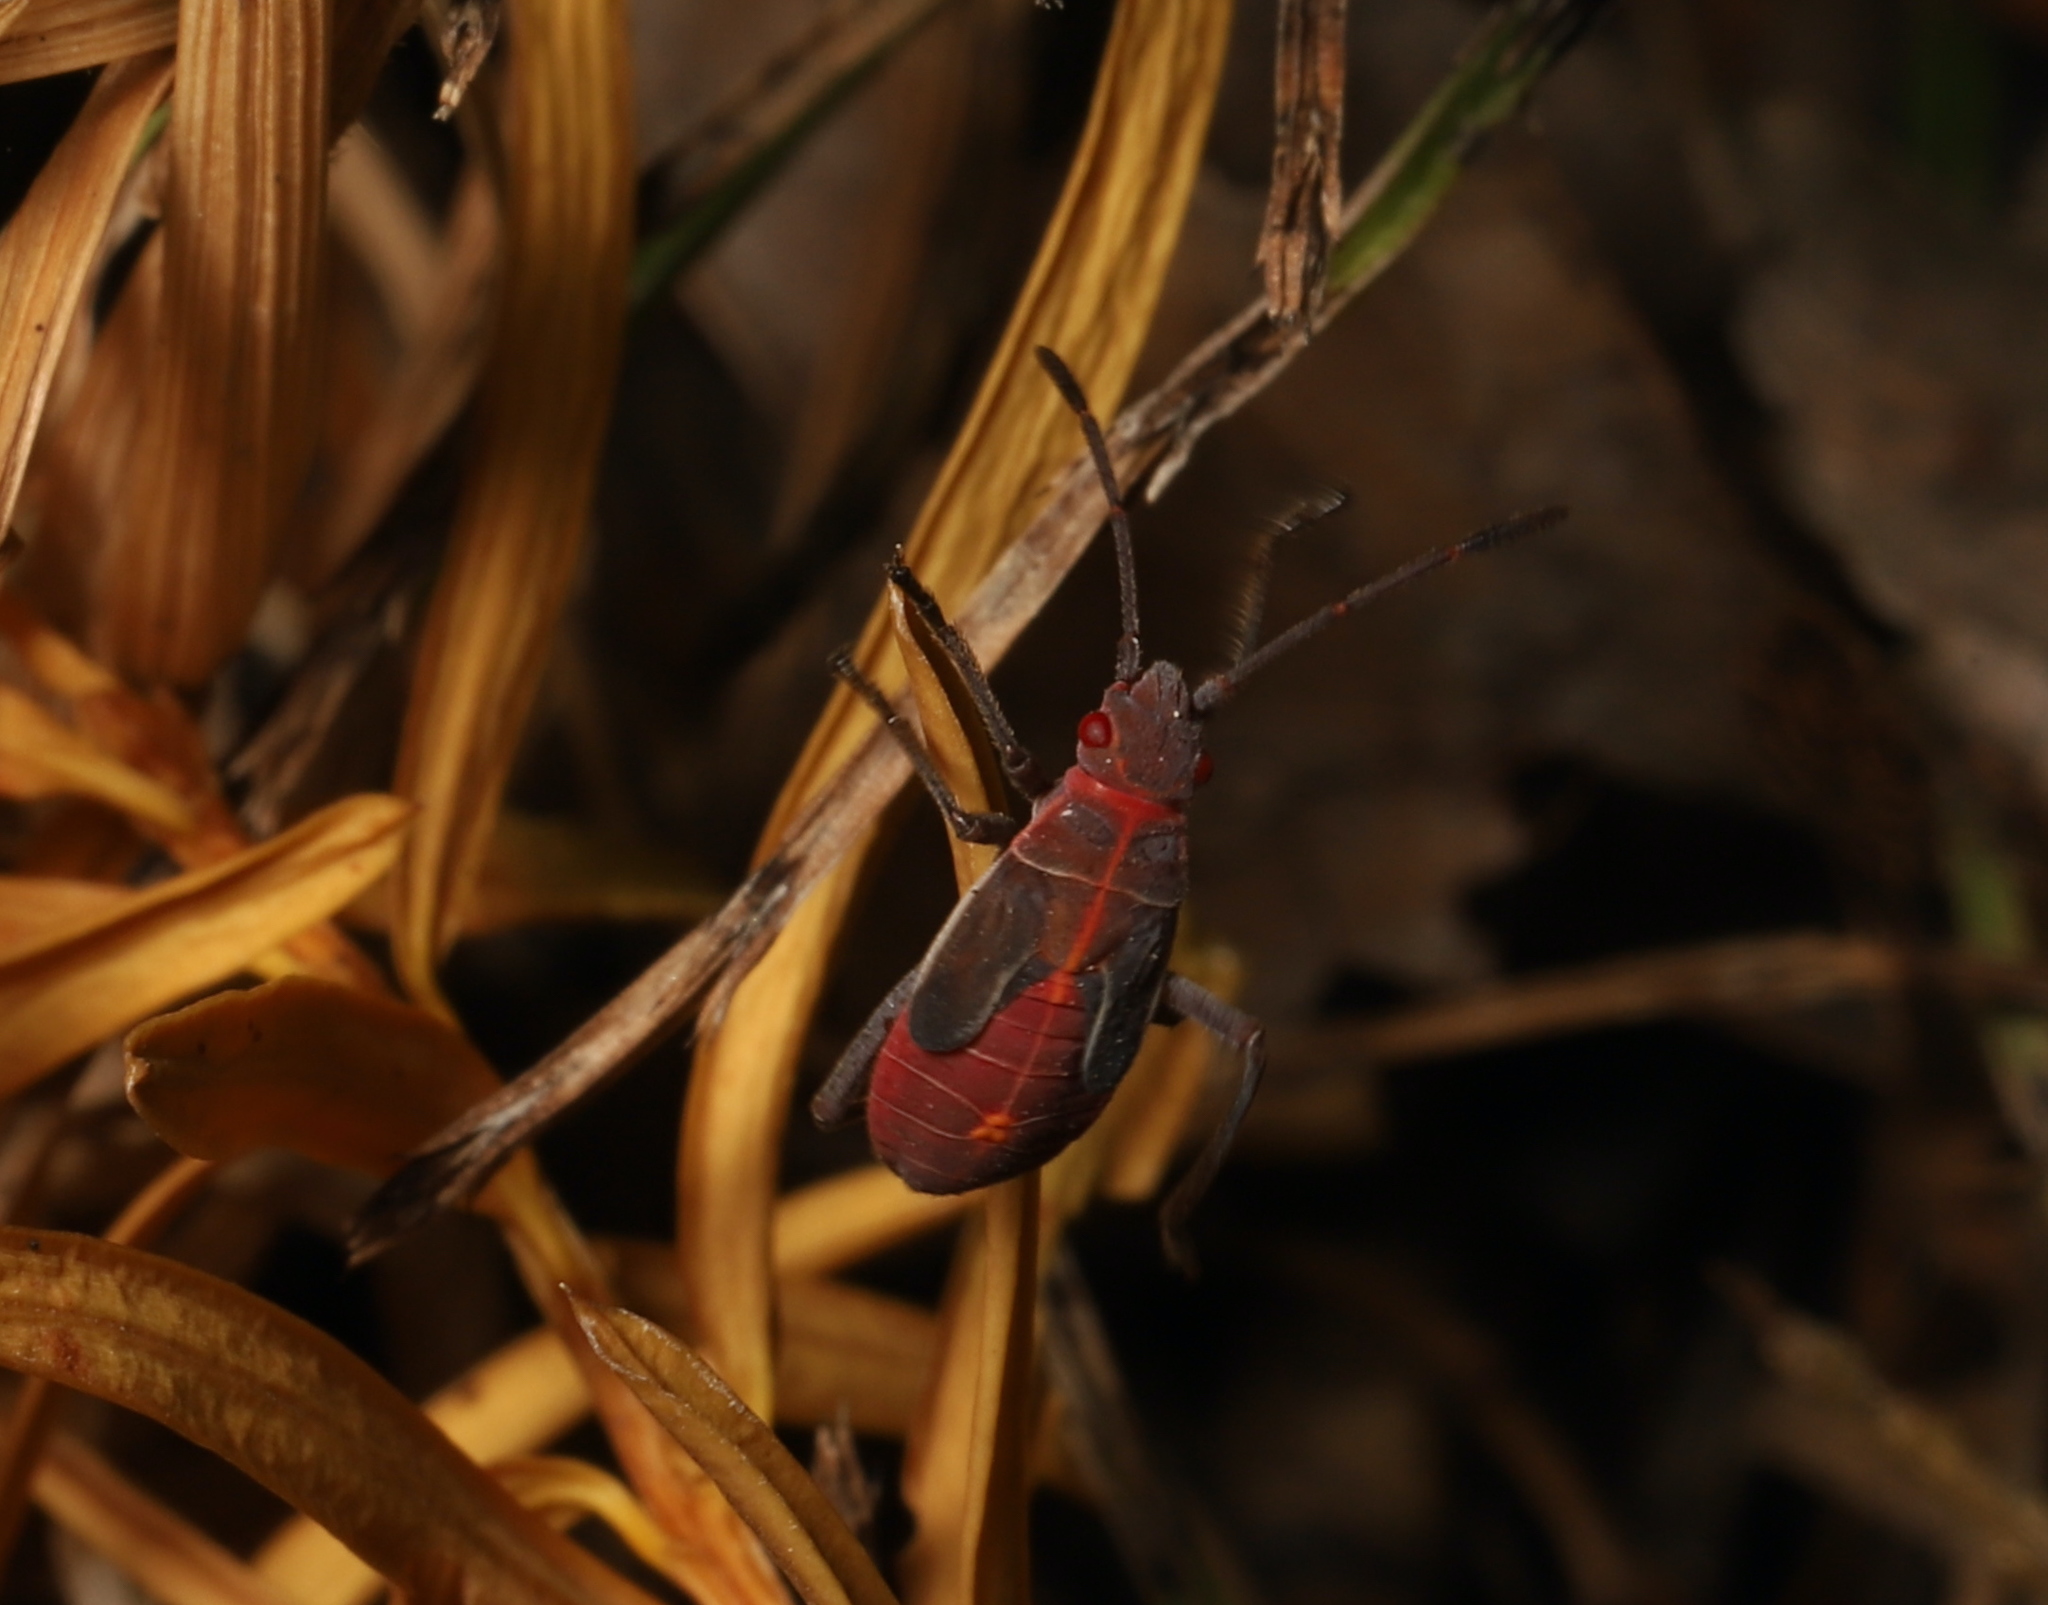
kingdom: Animalia
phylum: Arthropoda
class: Insecta
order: Hemiptera
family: Rhopalidae
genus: Boisea
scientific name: Boisea rubrolineata
